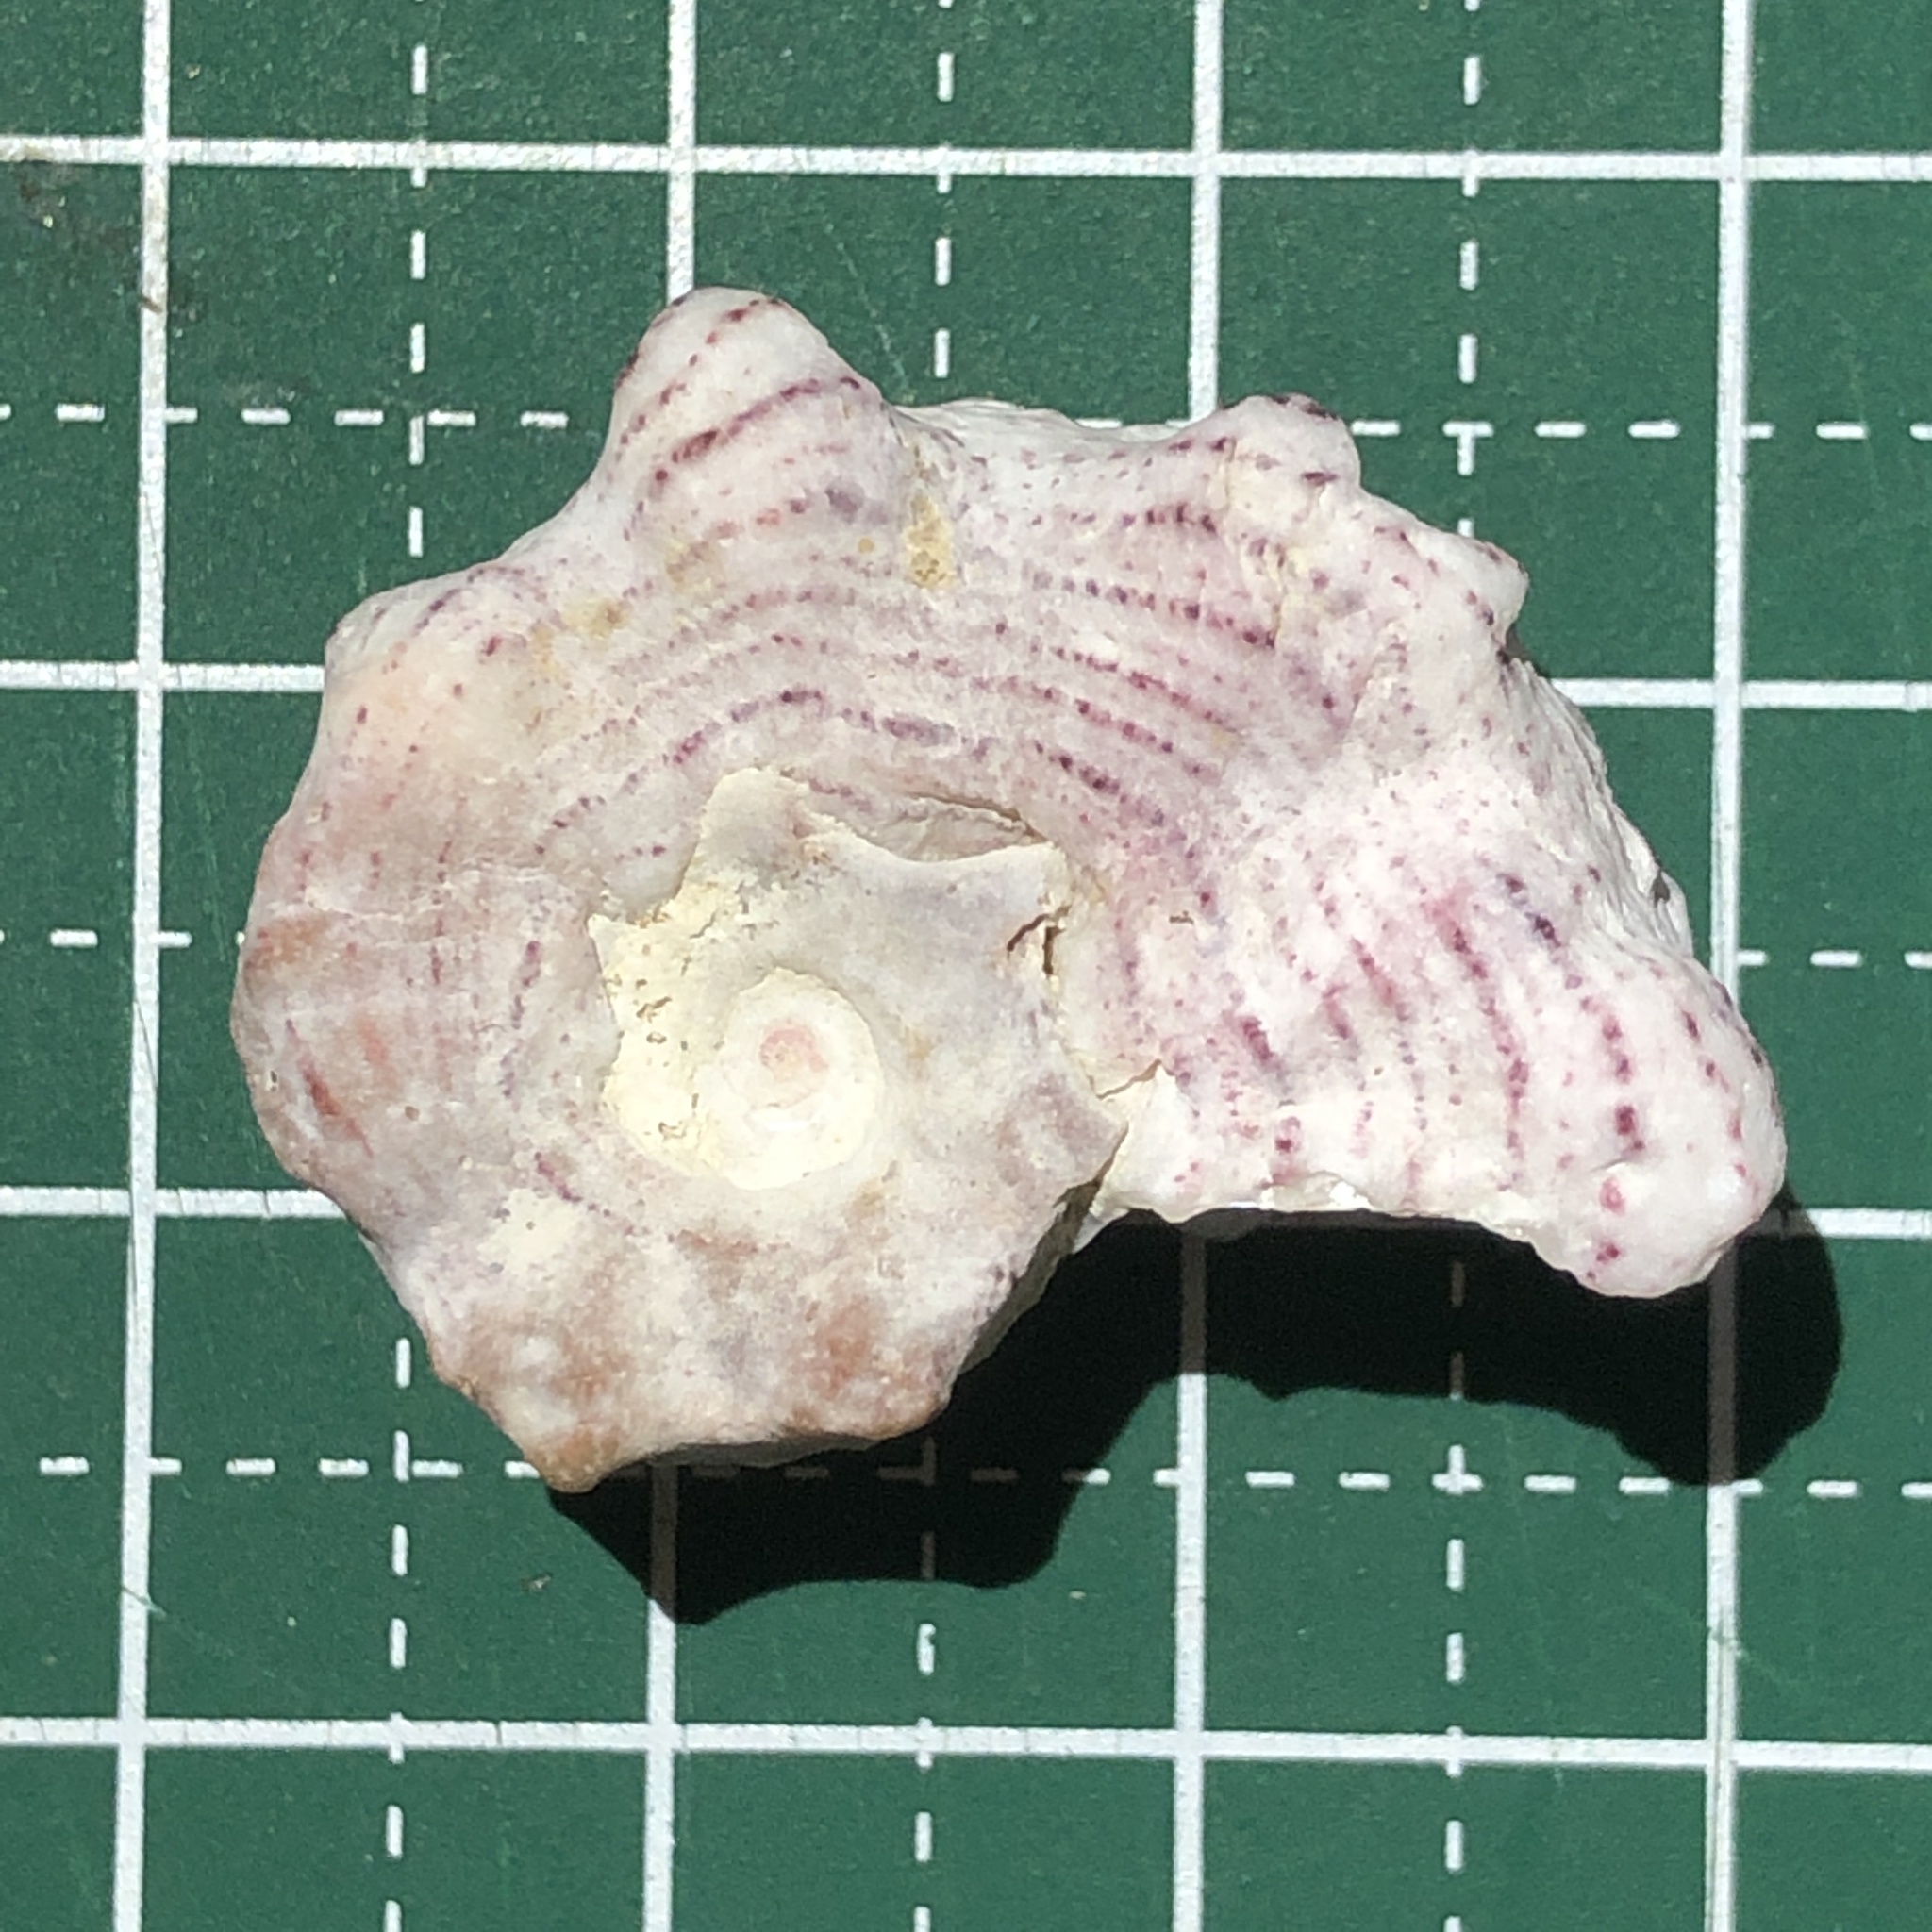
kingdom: Animalia
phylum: Mollusca
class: Gastropoda
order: Trochida
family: Angariidae
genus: Angaria
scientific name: Angaria exasperata
